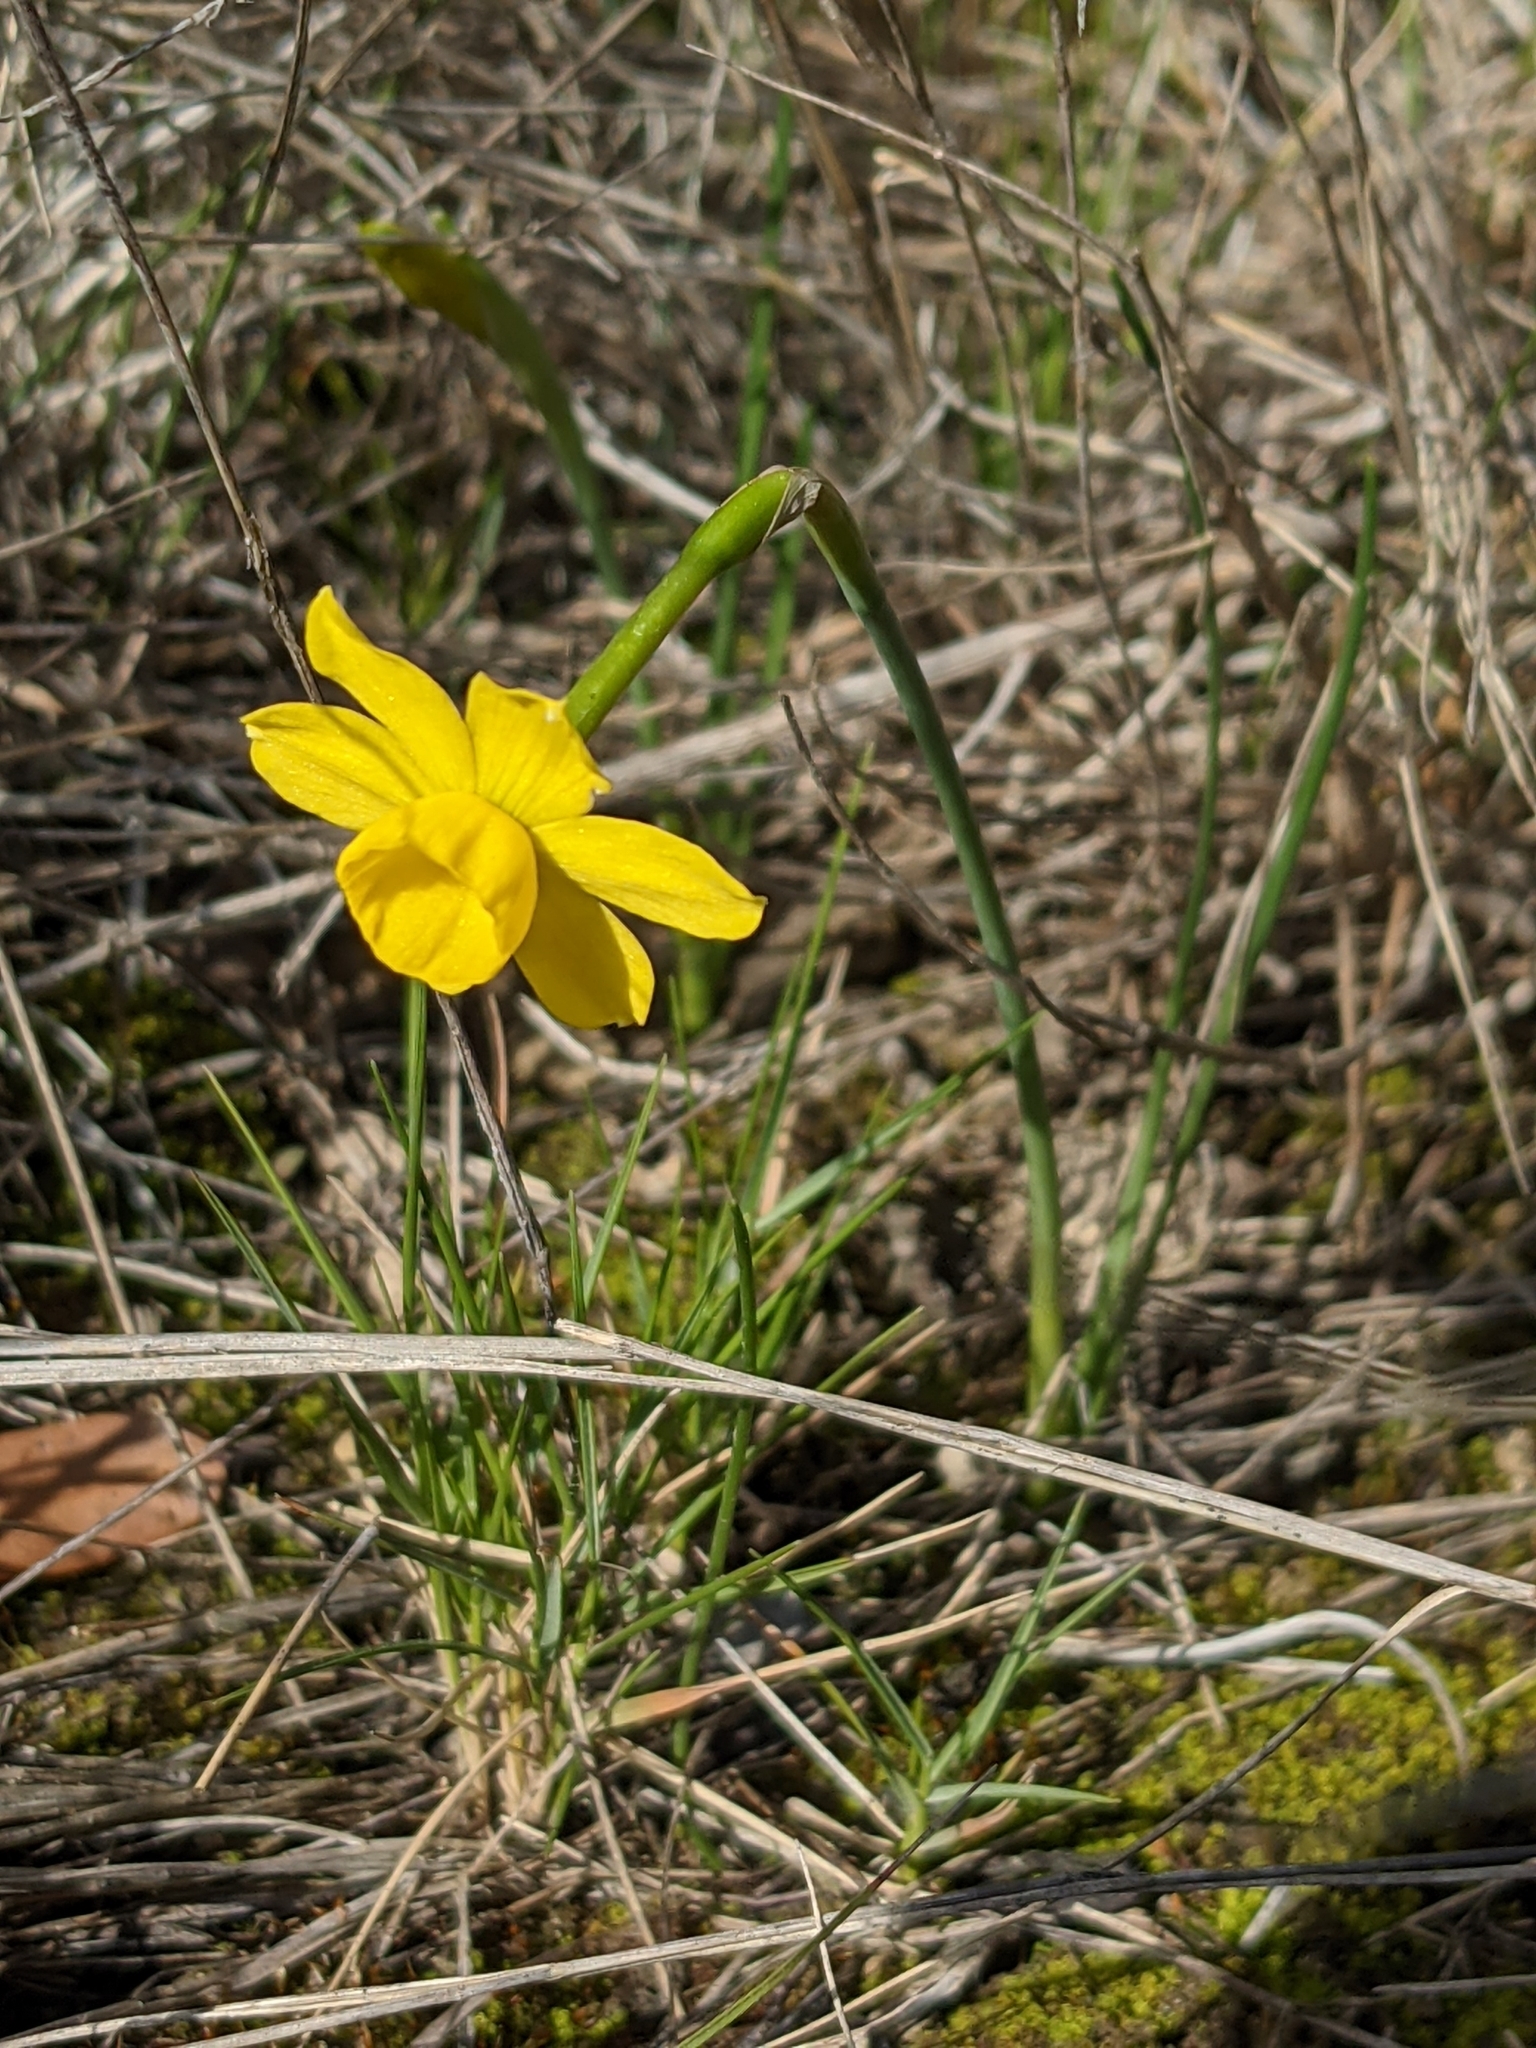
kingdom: Plantae
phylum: Tracheophyta
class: Liliopsida
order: Asparagales
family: Amaryllidaceae
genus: Narcissus
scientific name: Narcissus assoanus
